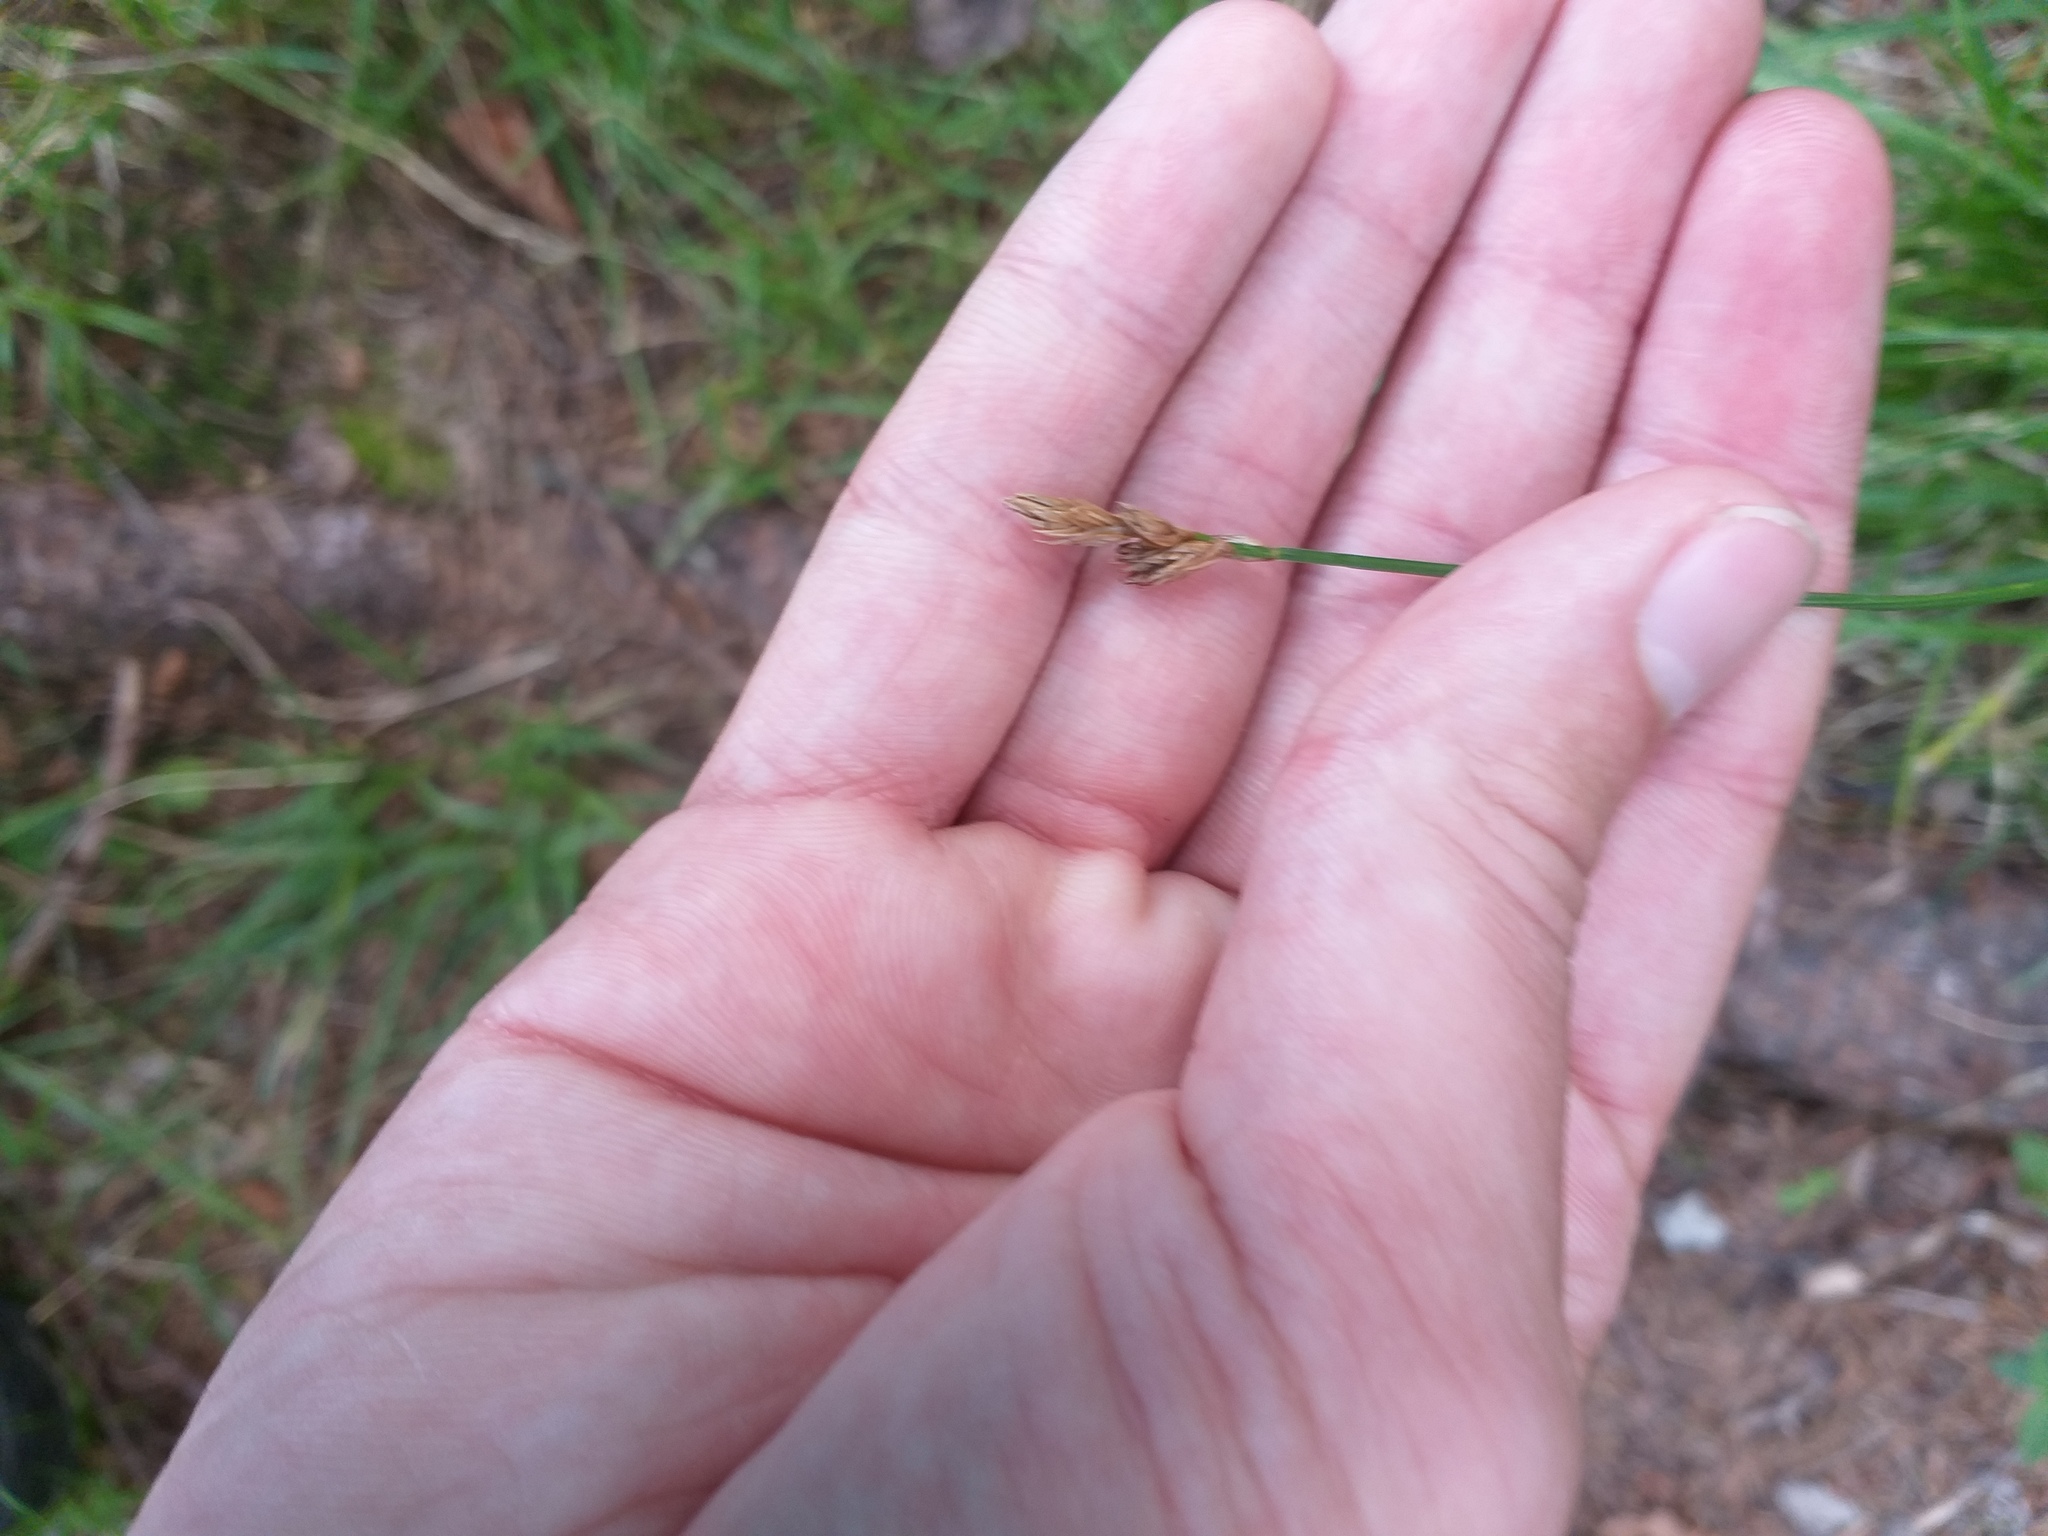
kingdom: Plantae
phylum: Tracheophyta
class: Liliopsida
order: Poales
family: Cyperaceae
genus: Carex
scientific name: Carex leporina
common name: Oval sedge
